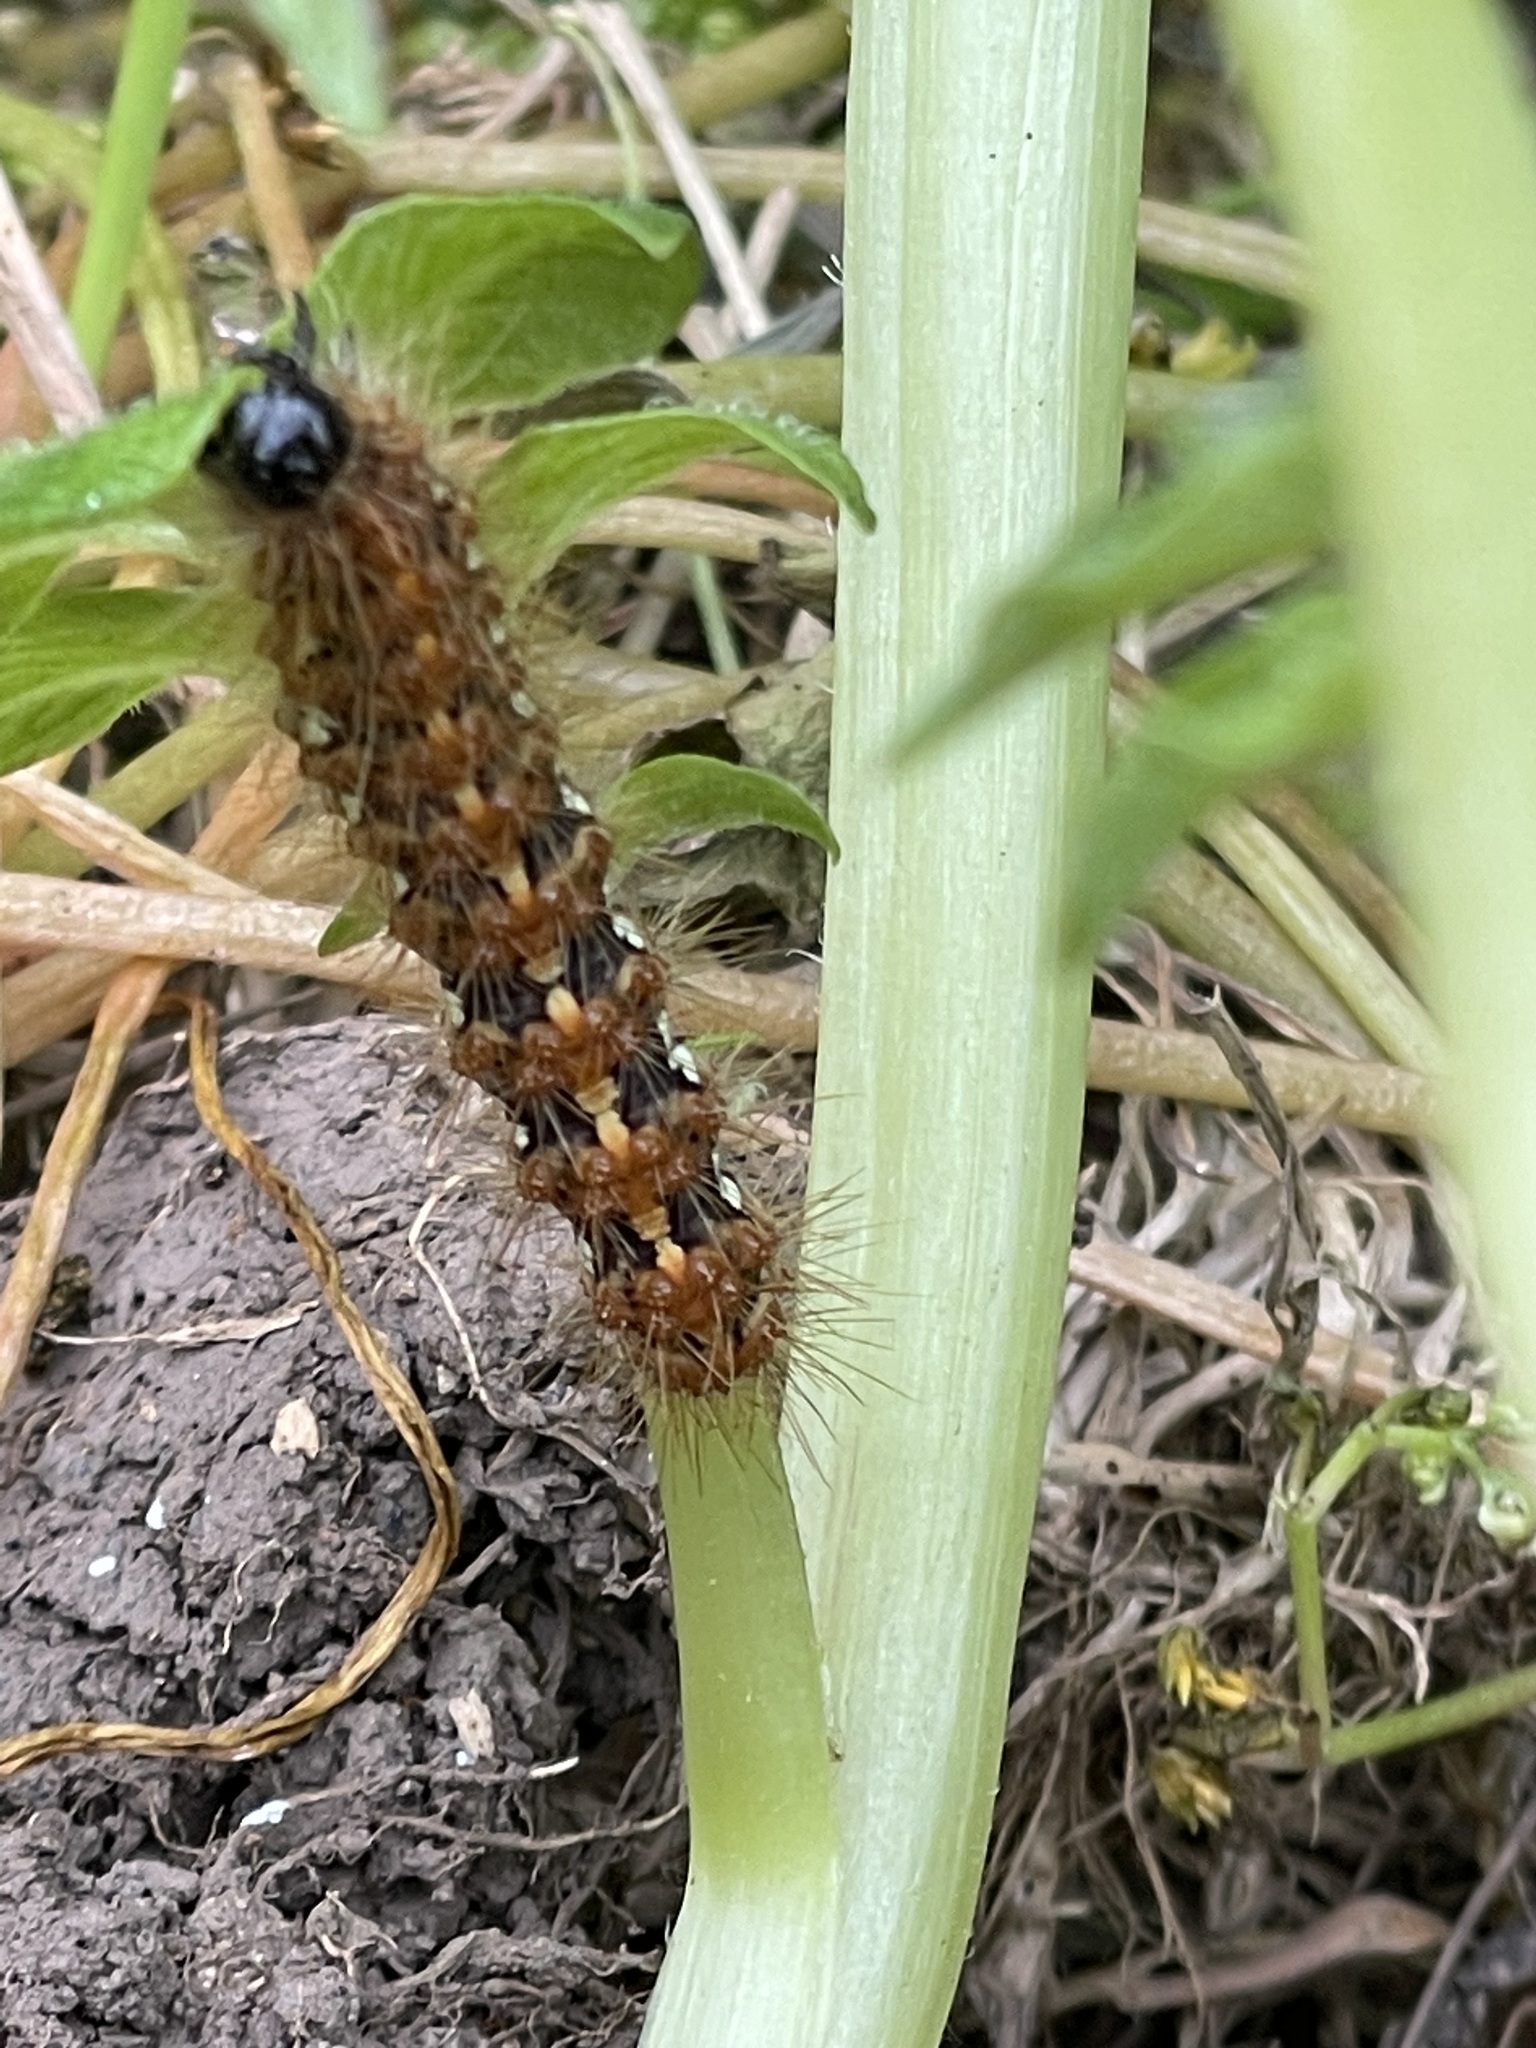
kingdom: Animalia
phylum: Arthropoda
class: Insecta
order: Lepidoptera
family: Erebidae
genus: Euplagia
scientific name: Euplagia quadripunctaria
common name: Jersey tiger
